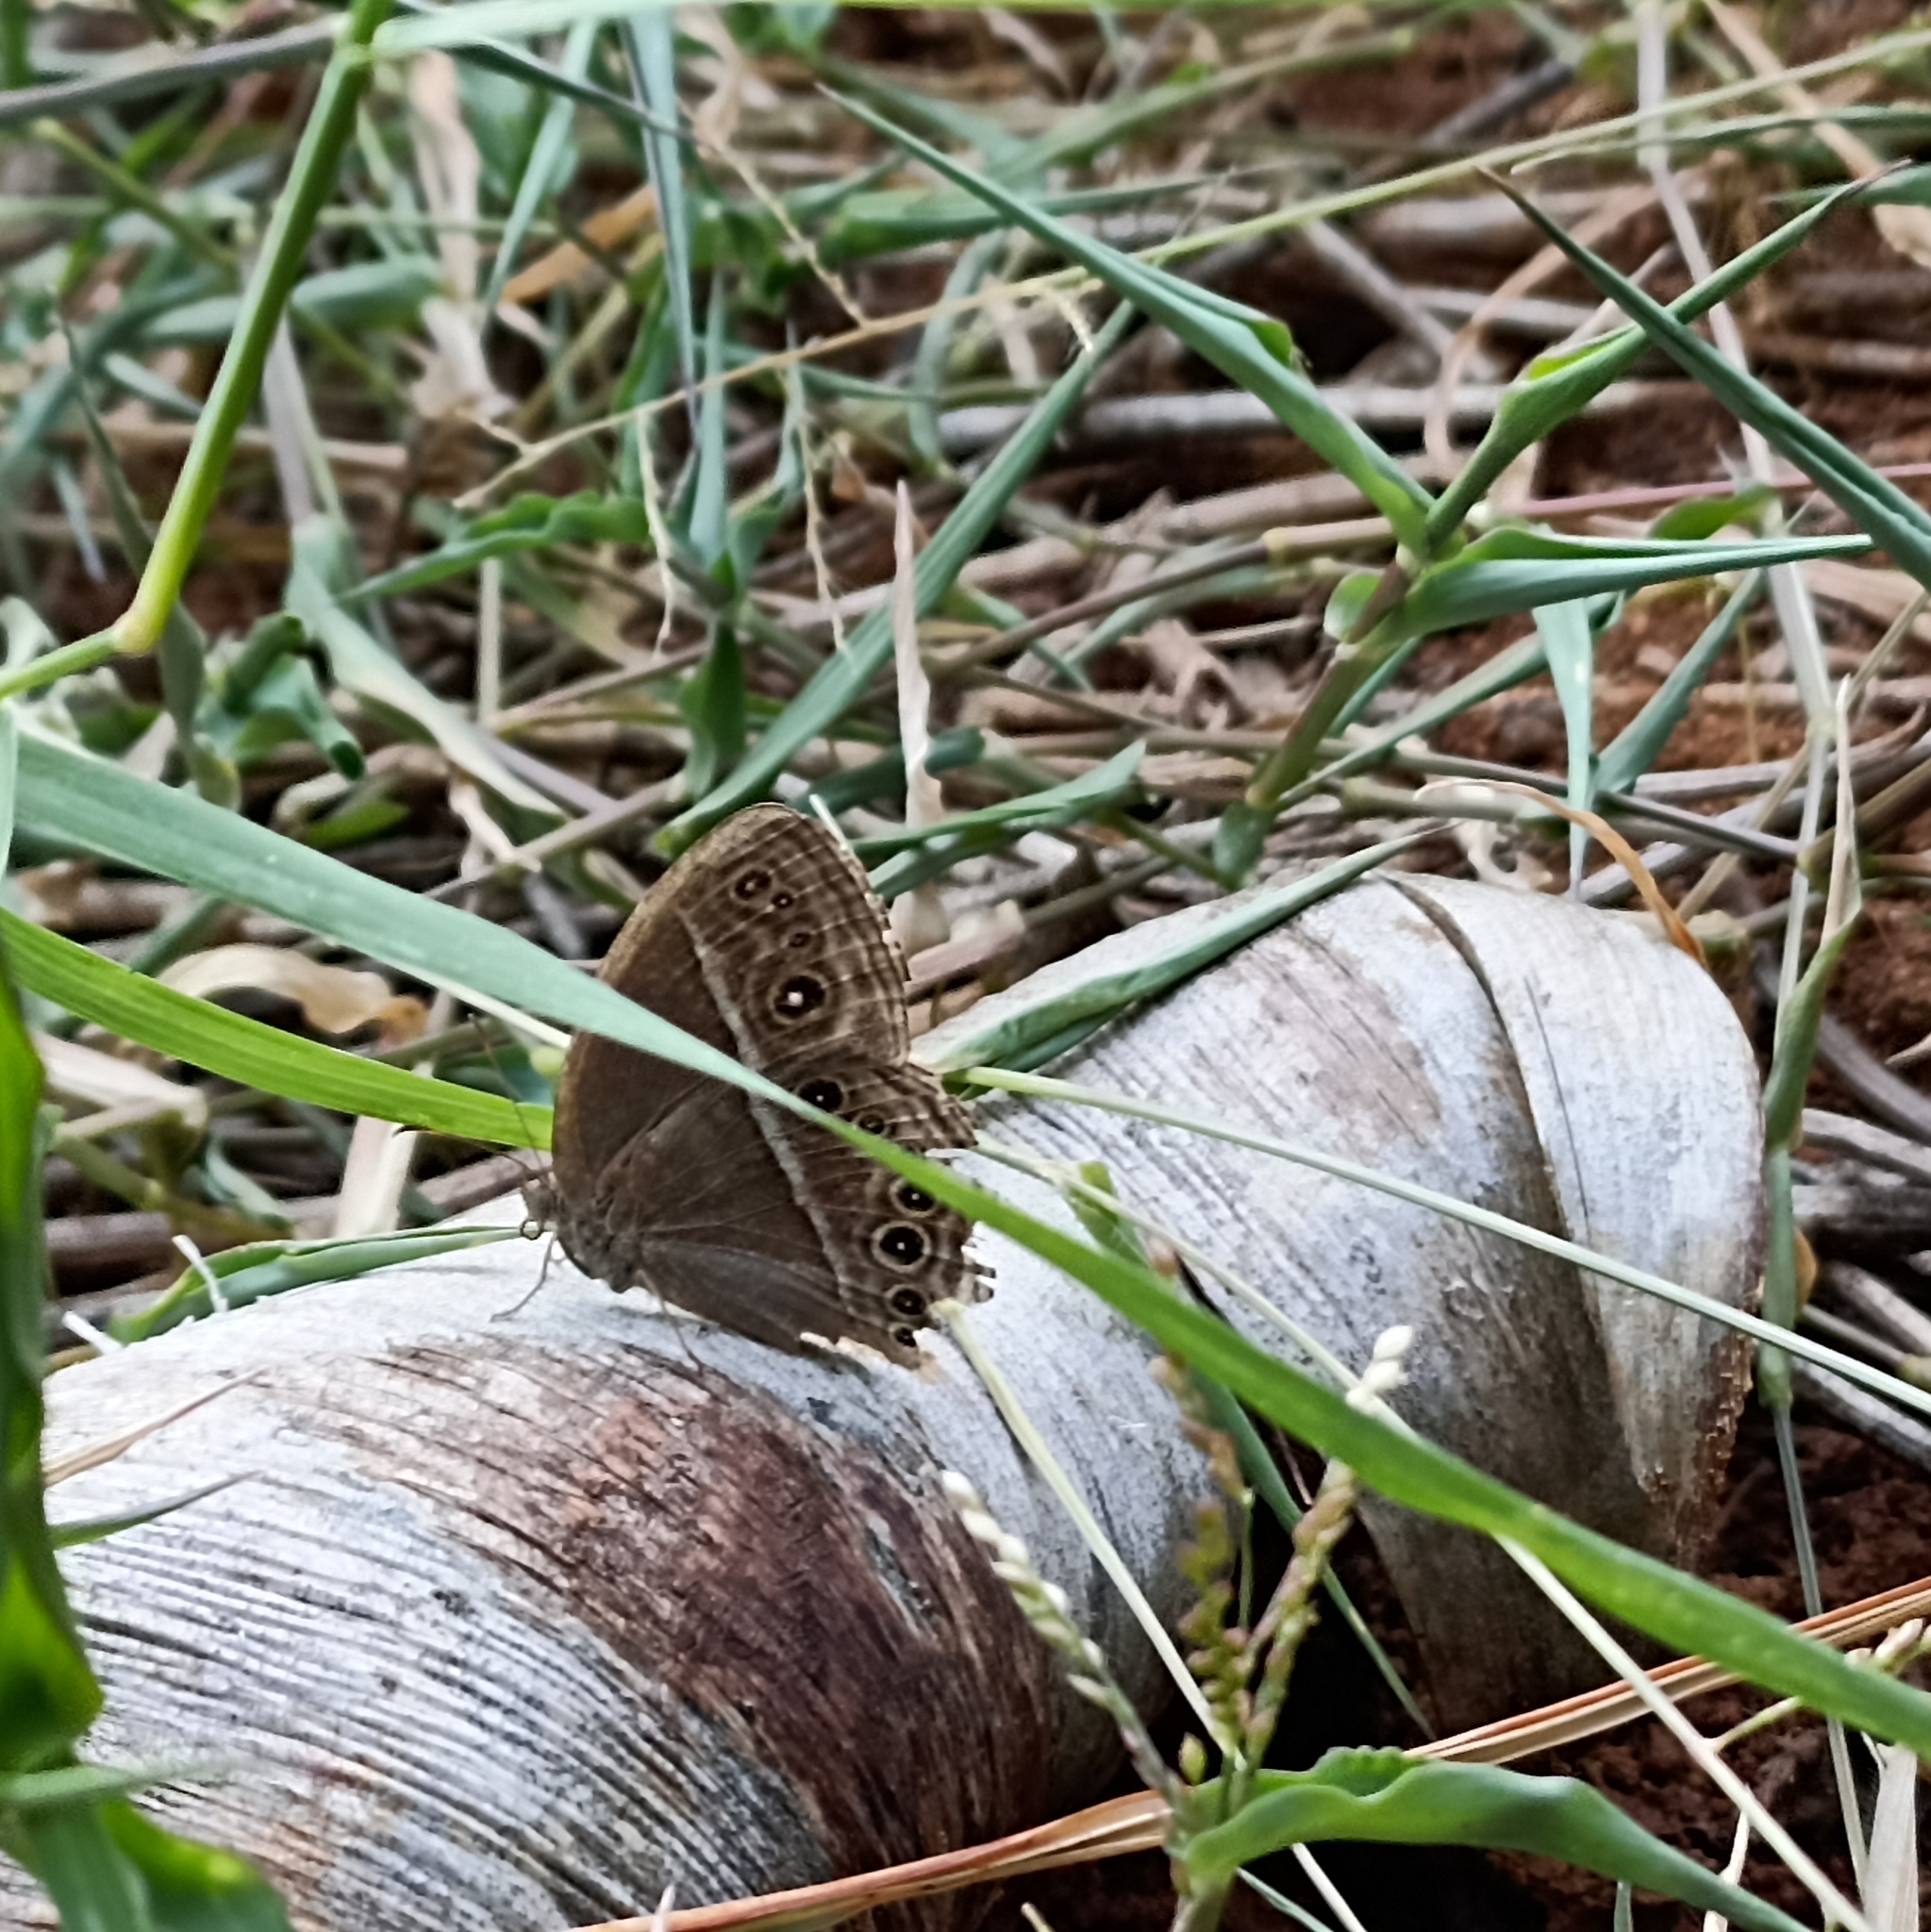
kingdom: Animalia
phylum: Arthropoda
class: Insecta
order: Lepidoptera
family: Nymphalidae
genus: Mycalesis
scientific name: Mycalesis perseus
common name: Dingy bushbrown
